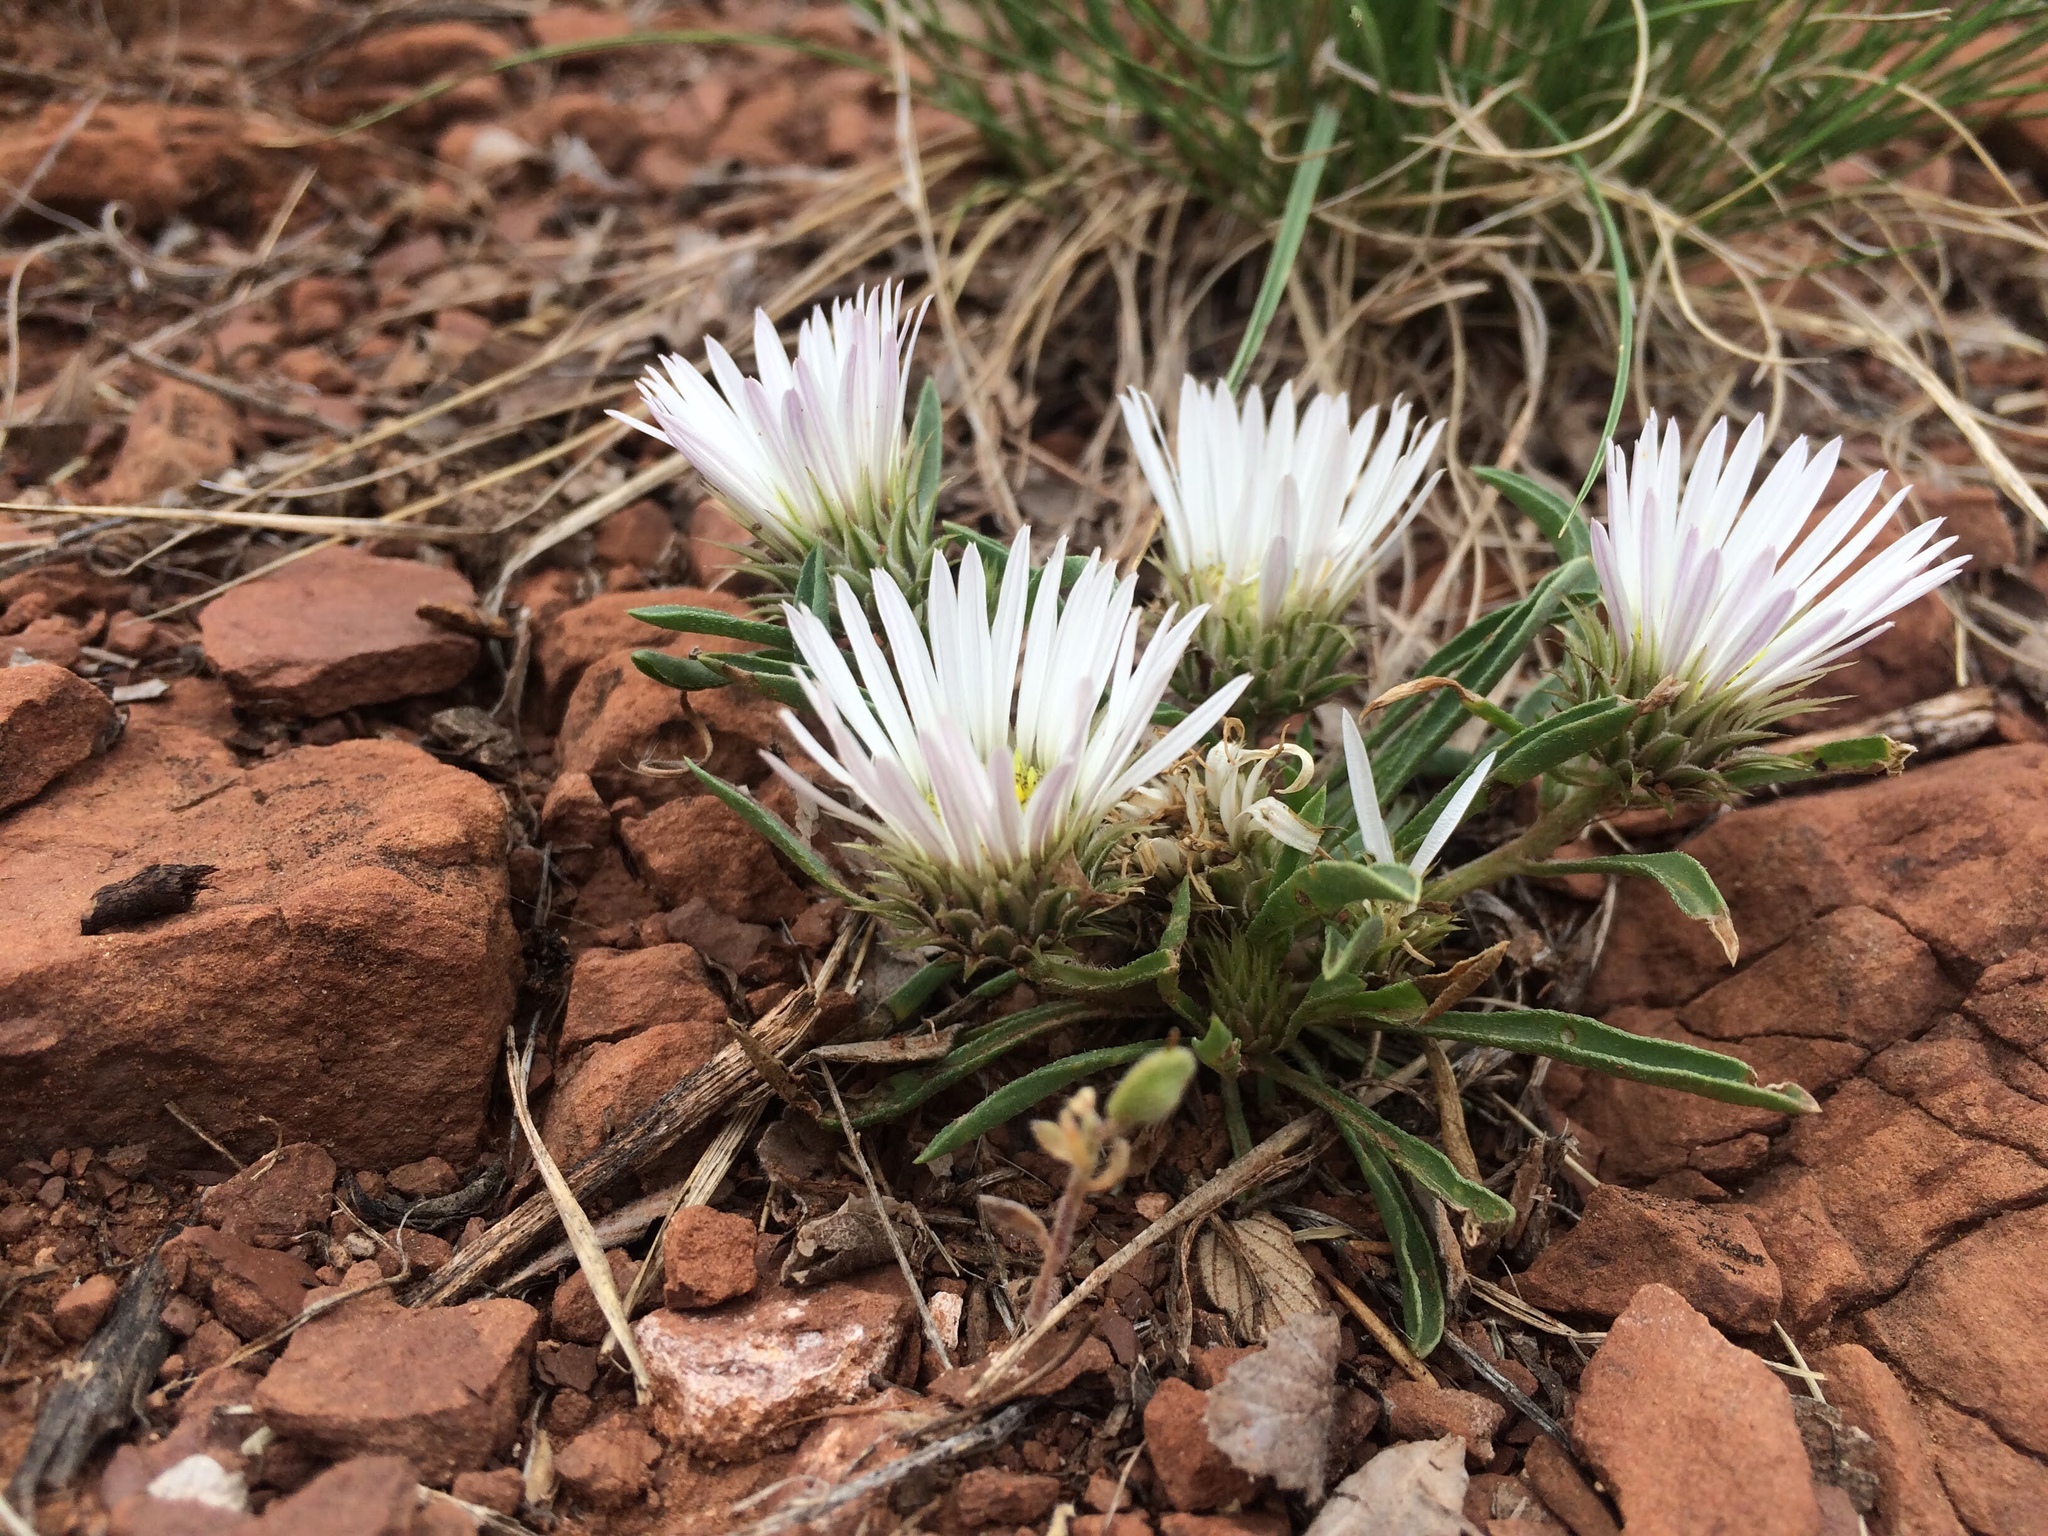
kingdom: Plantae
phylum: Tracheophyta
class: Magnoliopsida
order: Asterales
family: Asteraceae
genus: Townsendia
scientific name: Townsendia grandiflora
